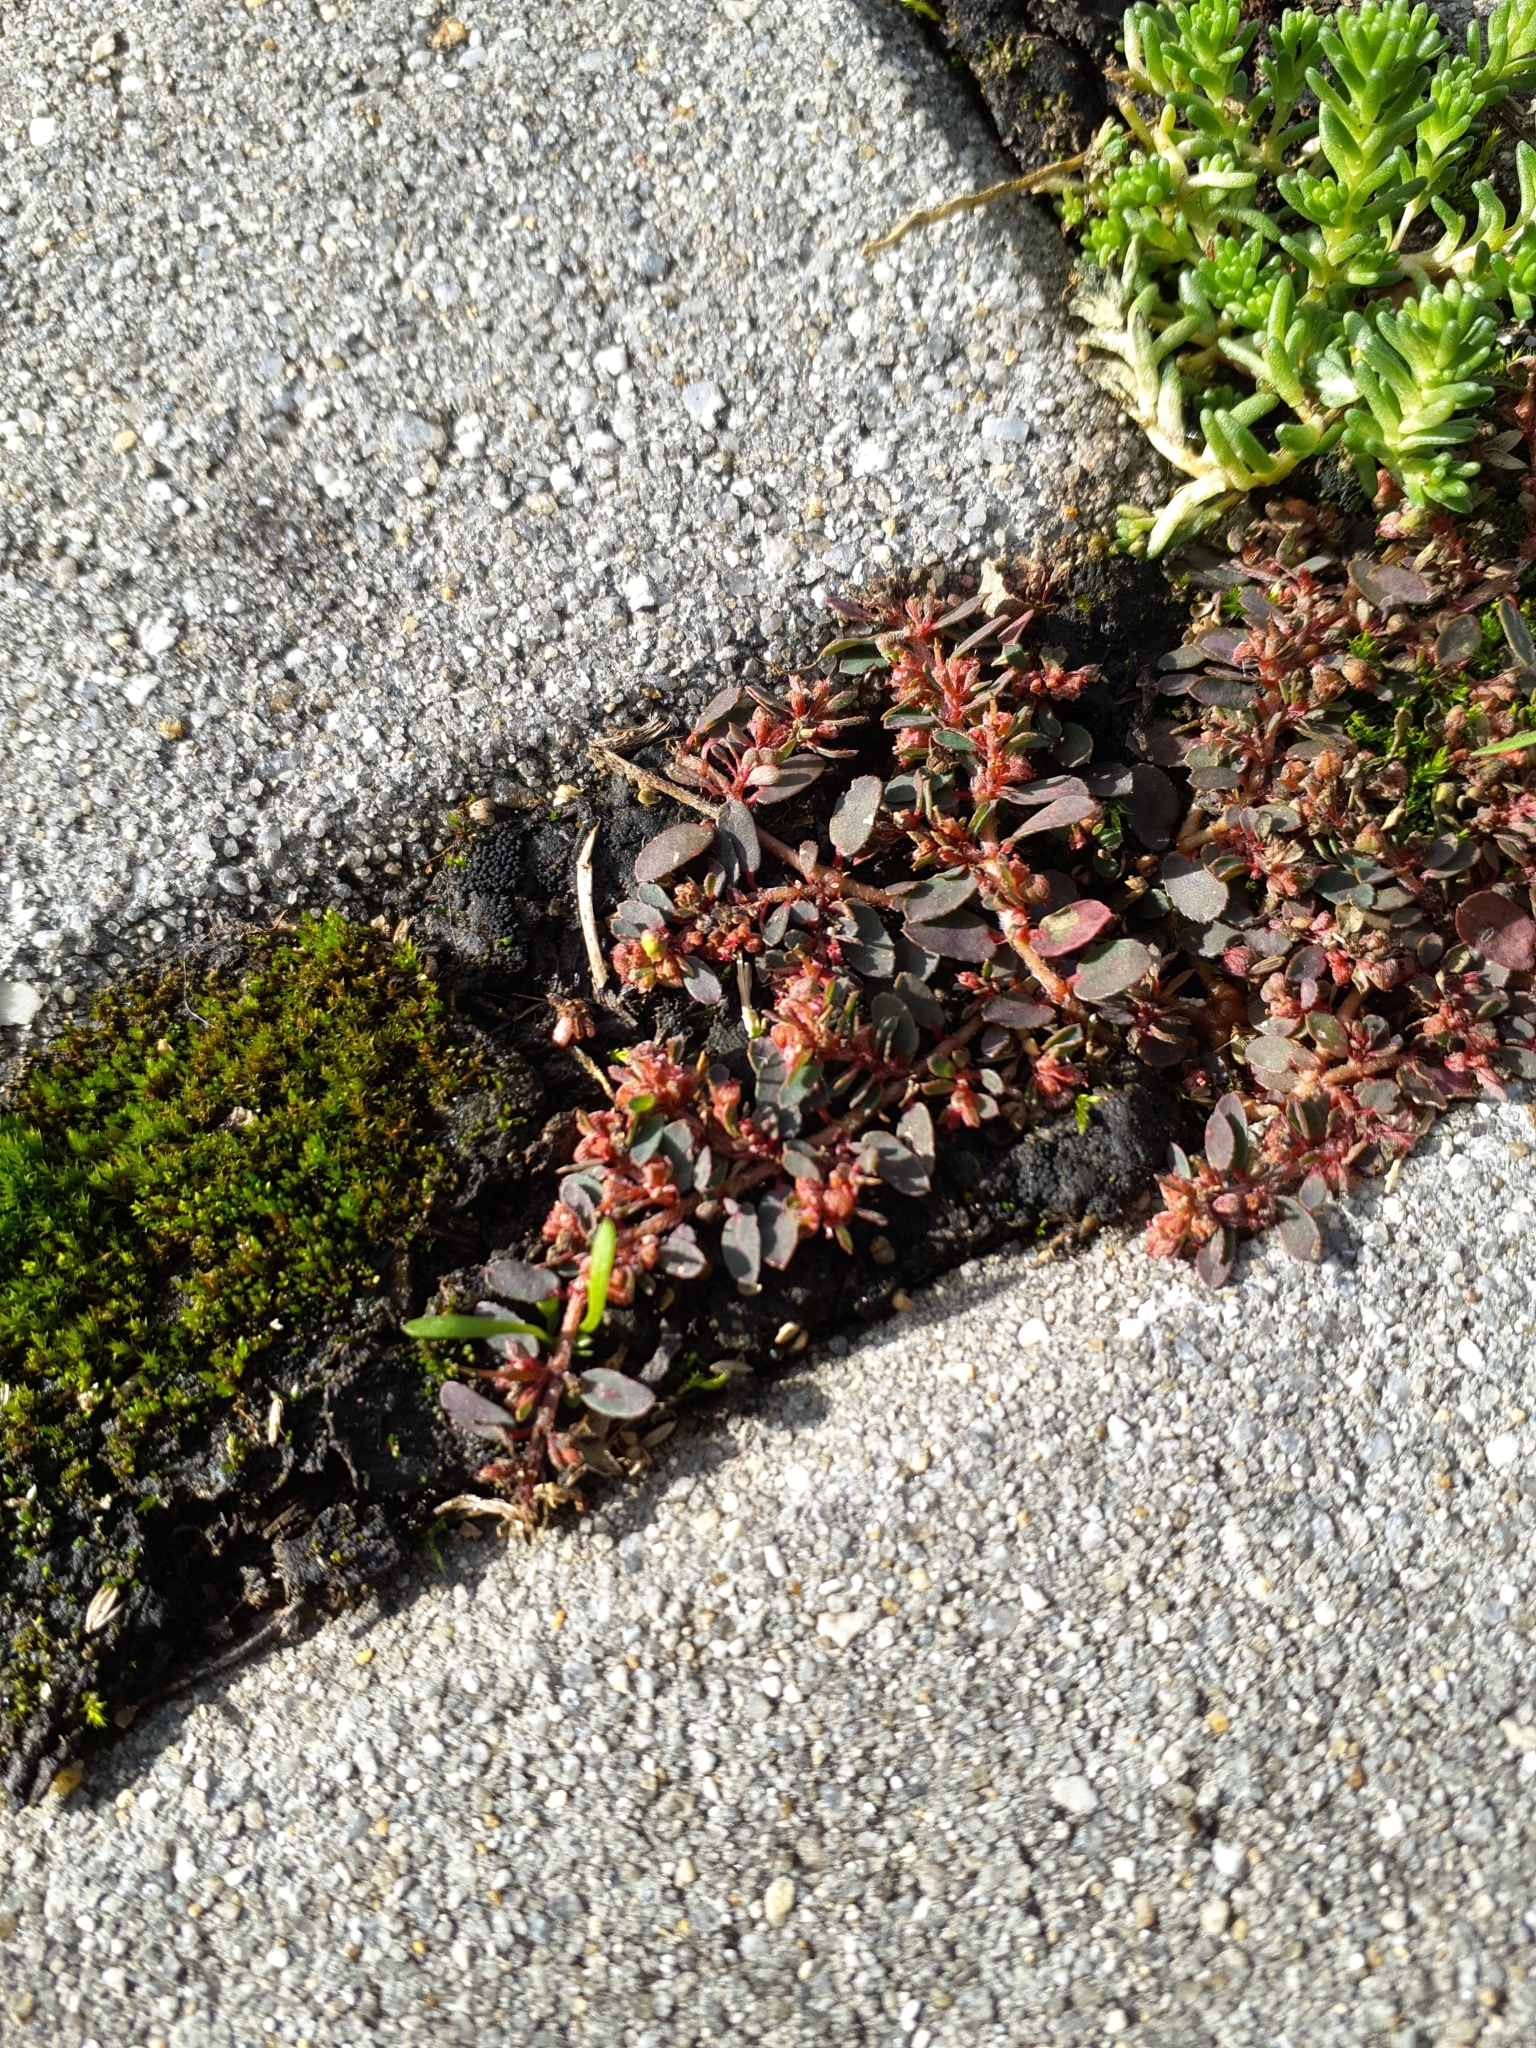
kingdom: Plantae
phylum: Tracheophyta
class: Magnoliopsida
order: Malpighiales
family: Euphorbiaceae
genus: Euphorbia
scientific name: Euphorbia maculata
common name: Spotted spurge
